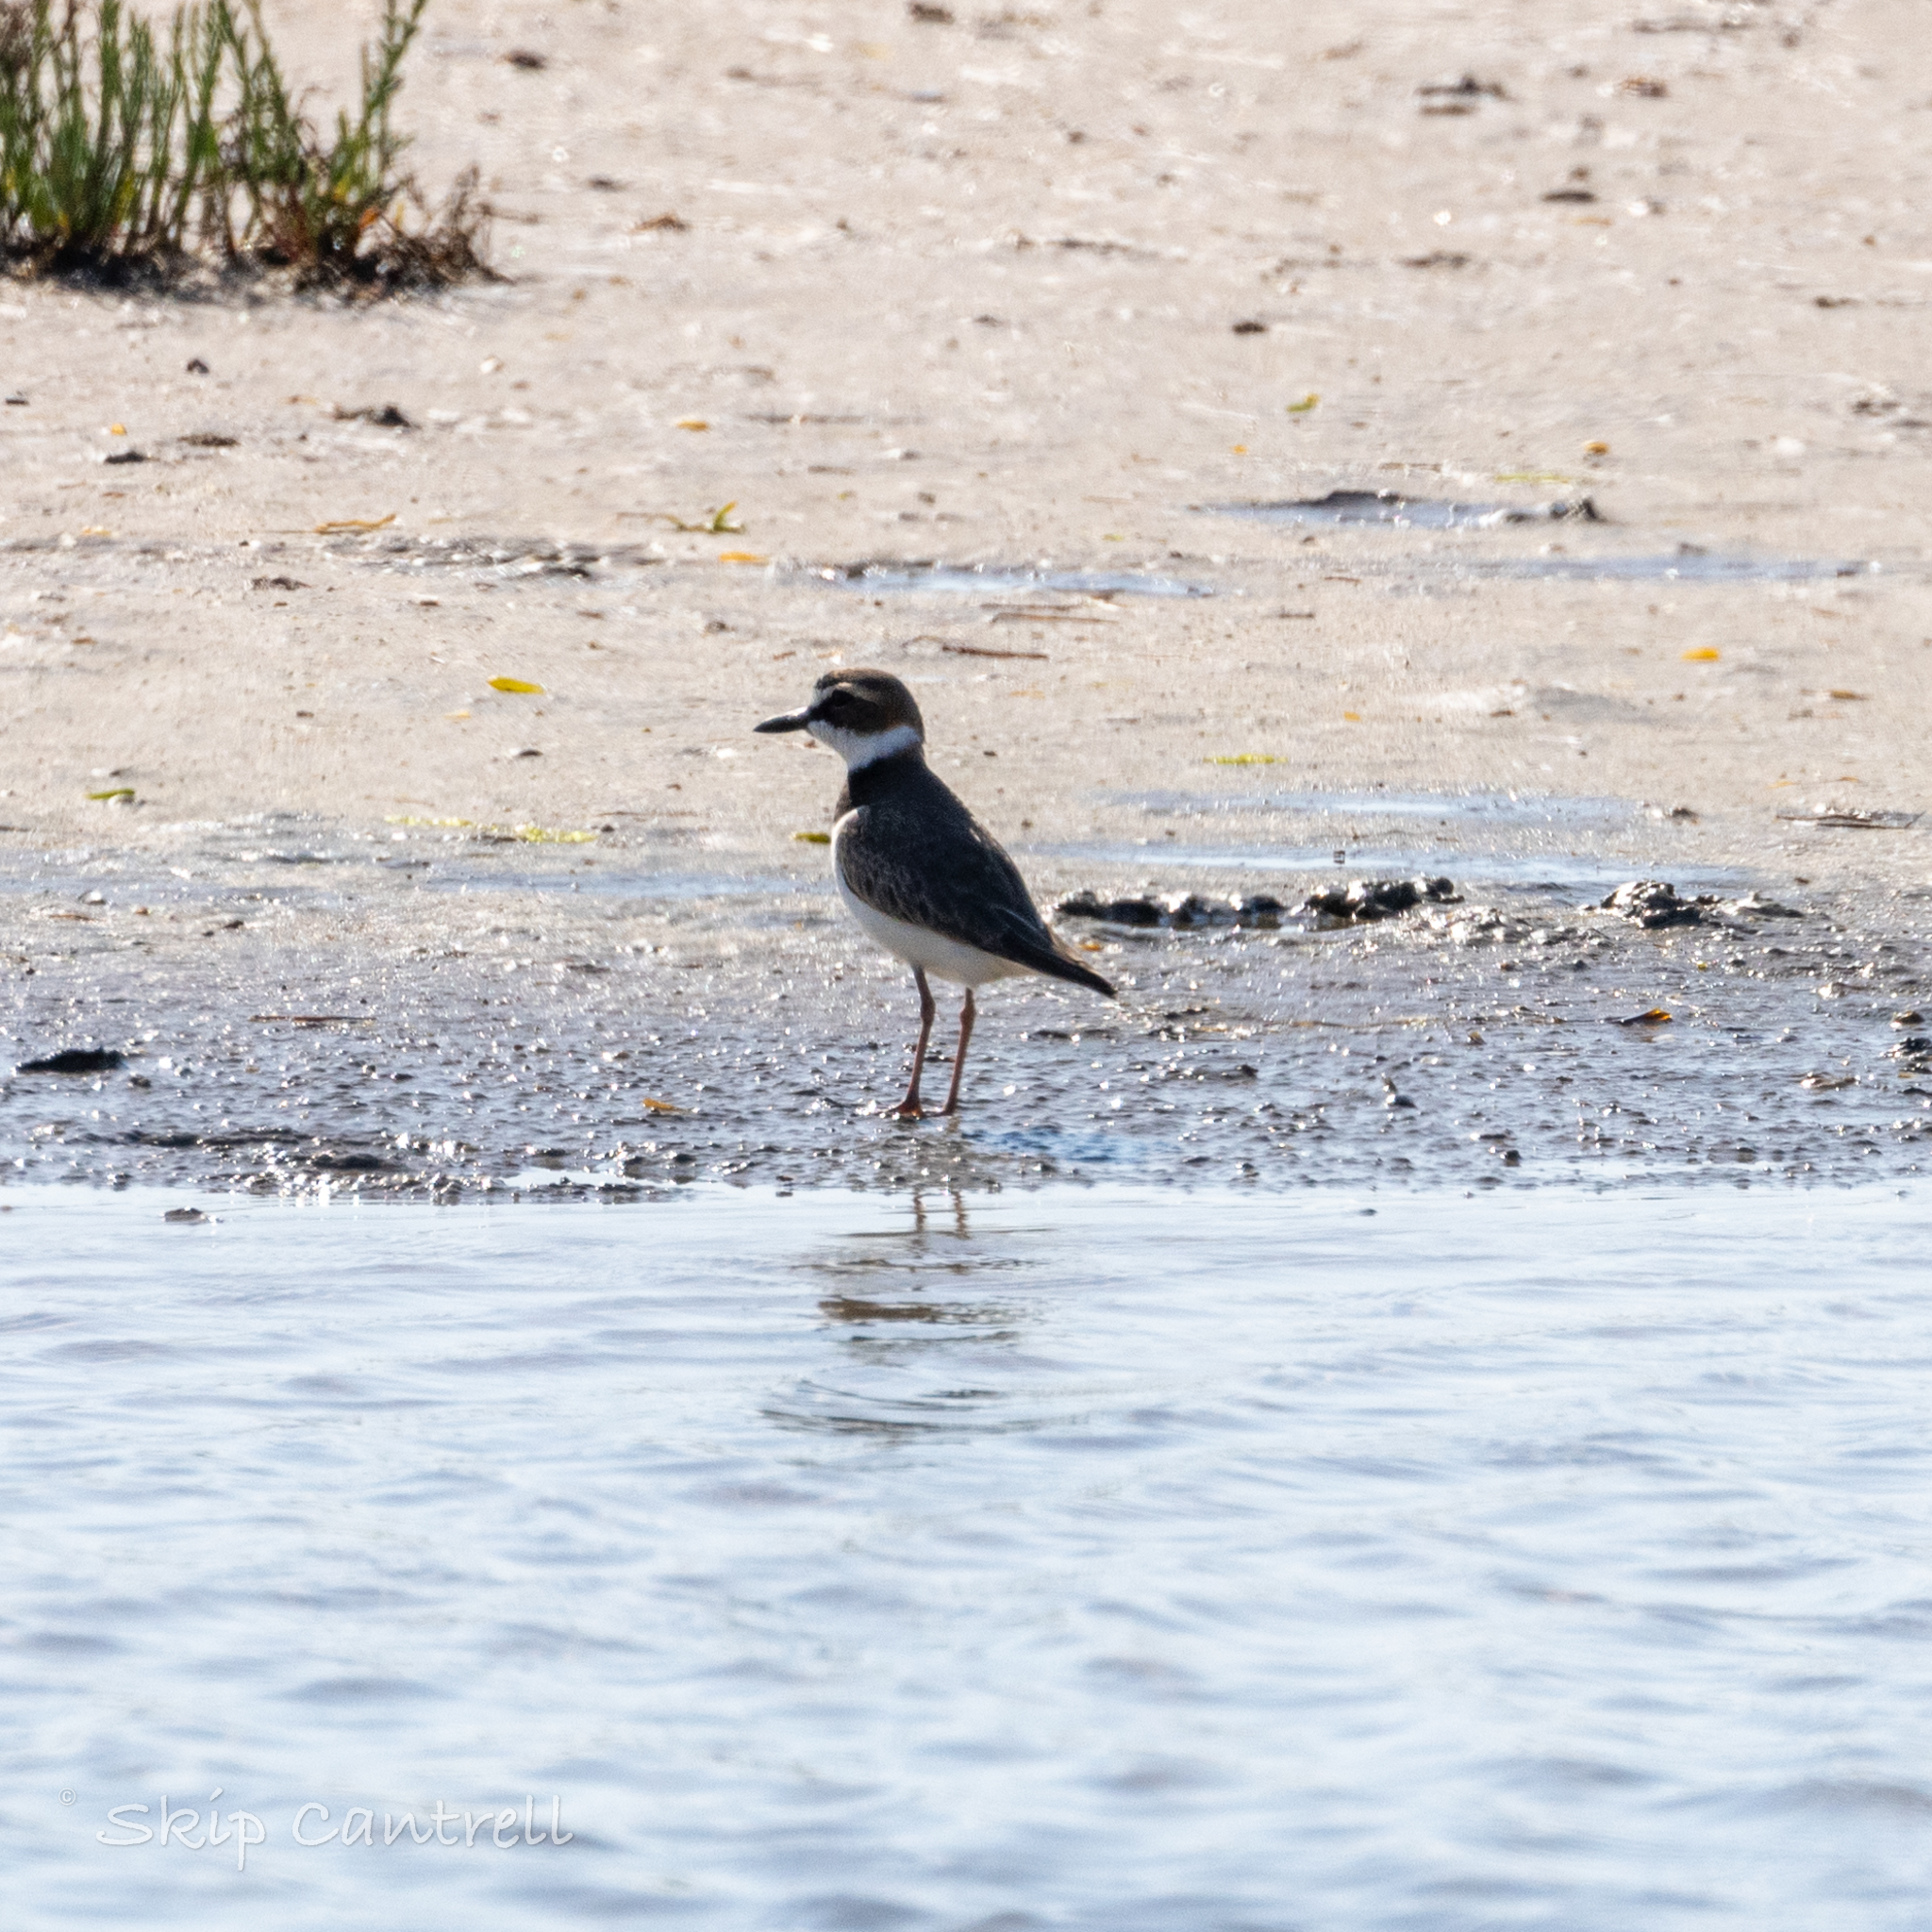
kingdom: Animalia
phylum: Chordata
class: Aves
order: Charadriiformes
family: Charadriidae
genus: Anarhynchus
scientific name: Anarhynchus
